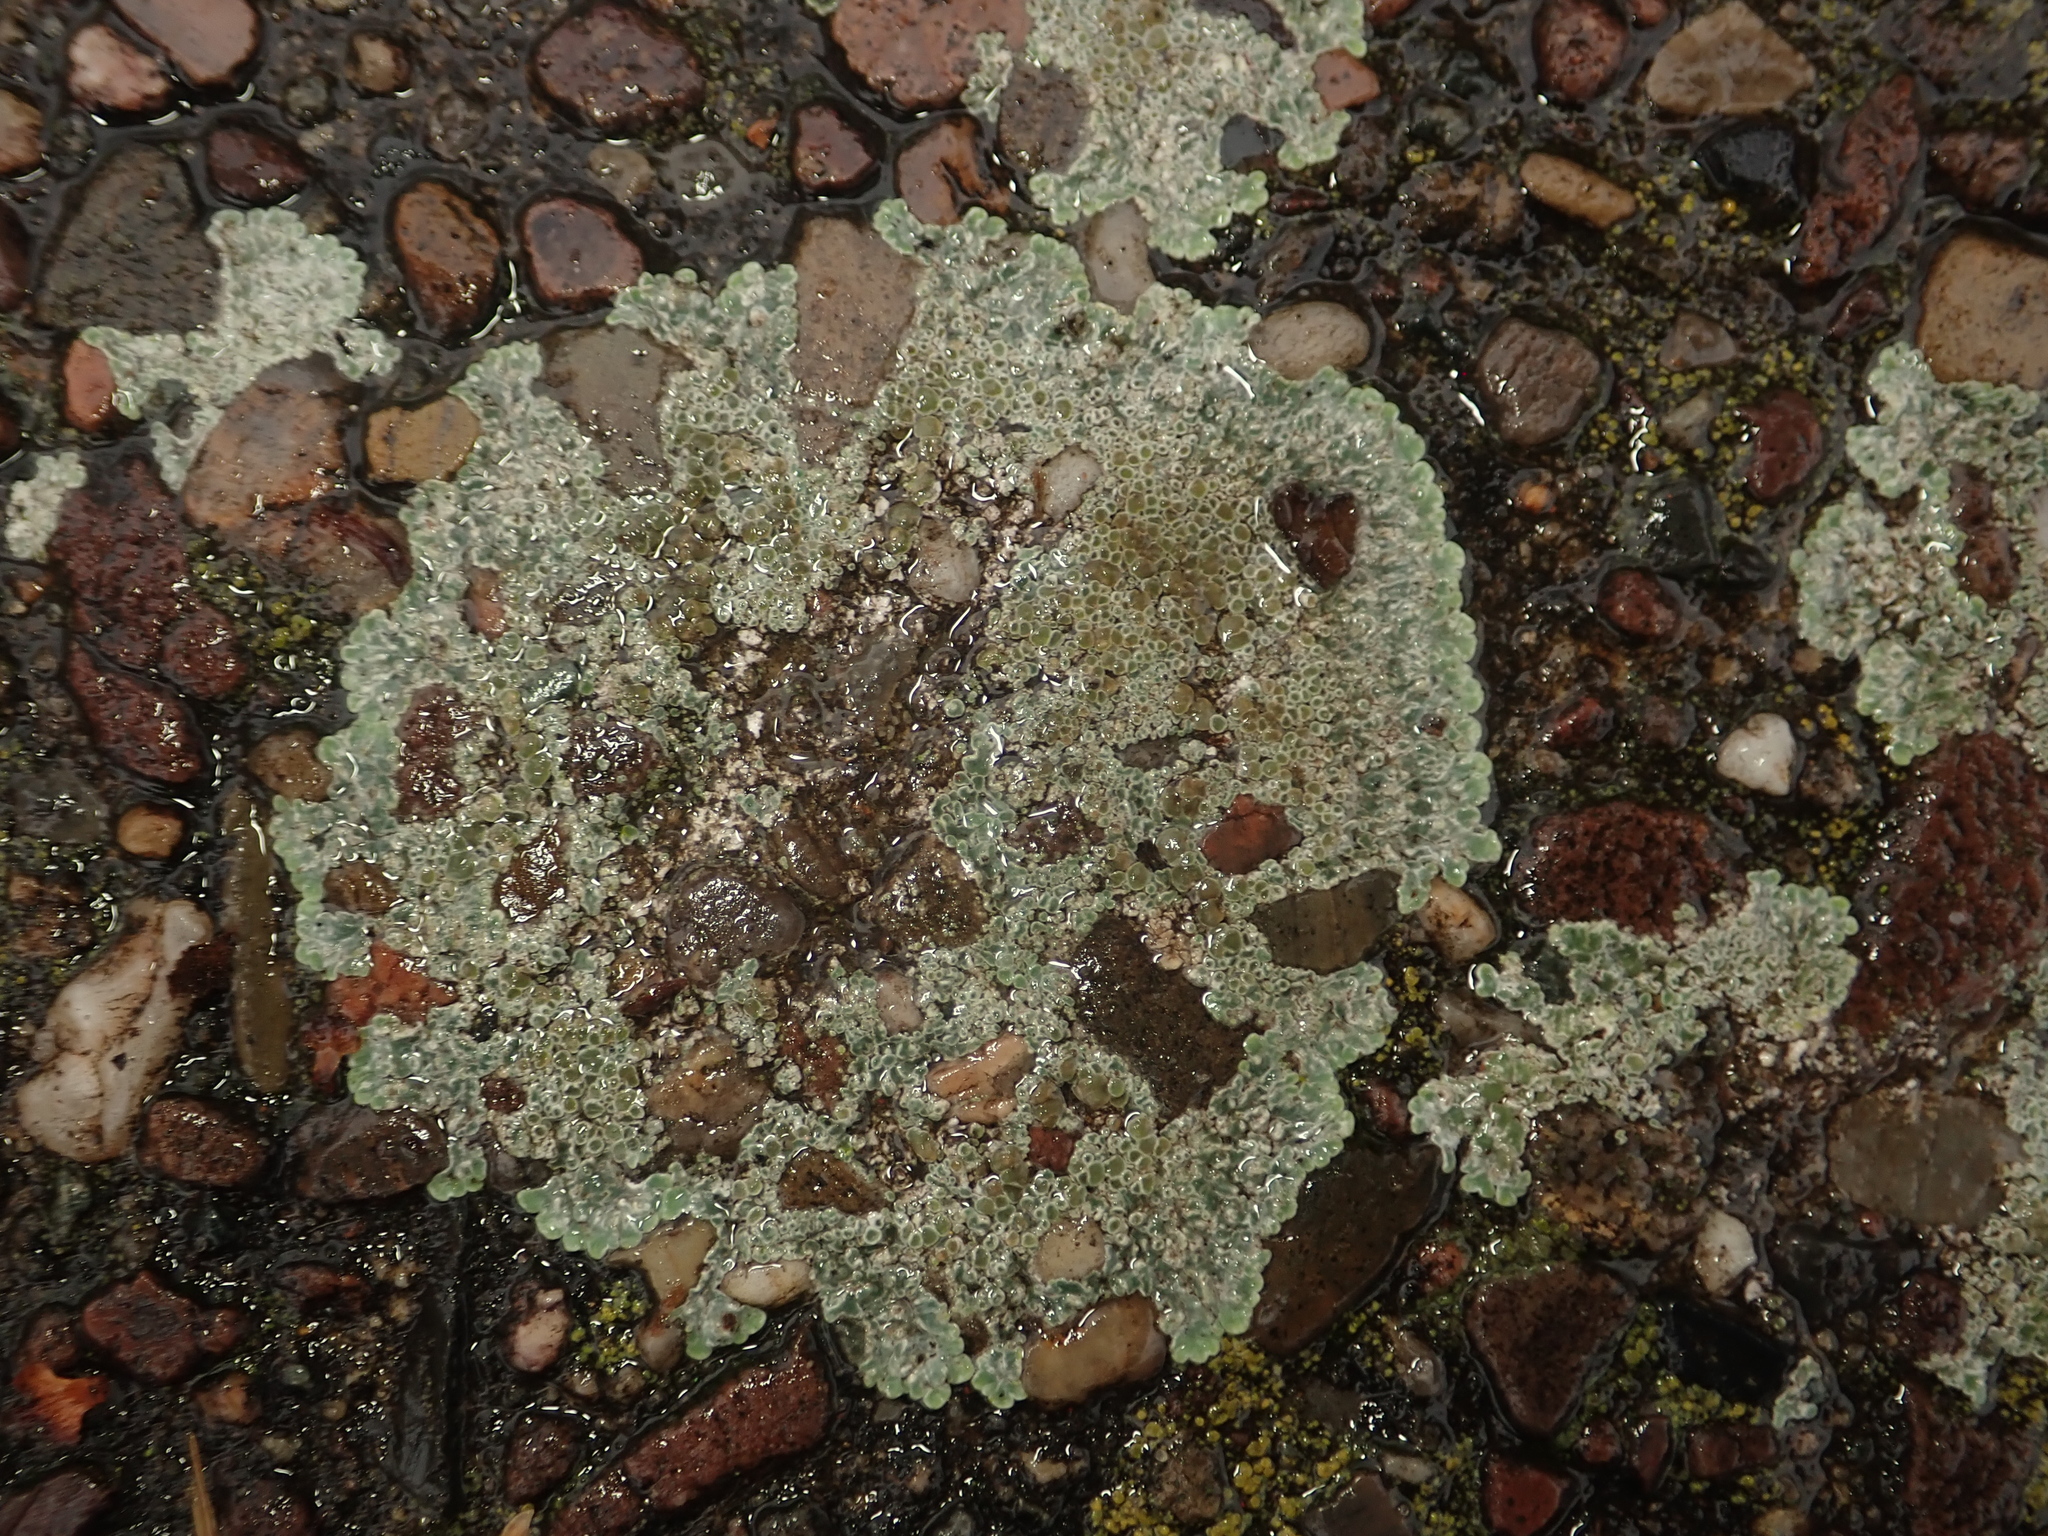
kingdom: Fungi
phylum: Ascomycota
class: Lecanoromycetes
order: Lecanorales
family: Lecanoraceae
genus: Protoparmeliopsis
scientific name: Protoparmeliopsis muralis
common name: Stonewall rim lichen
